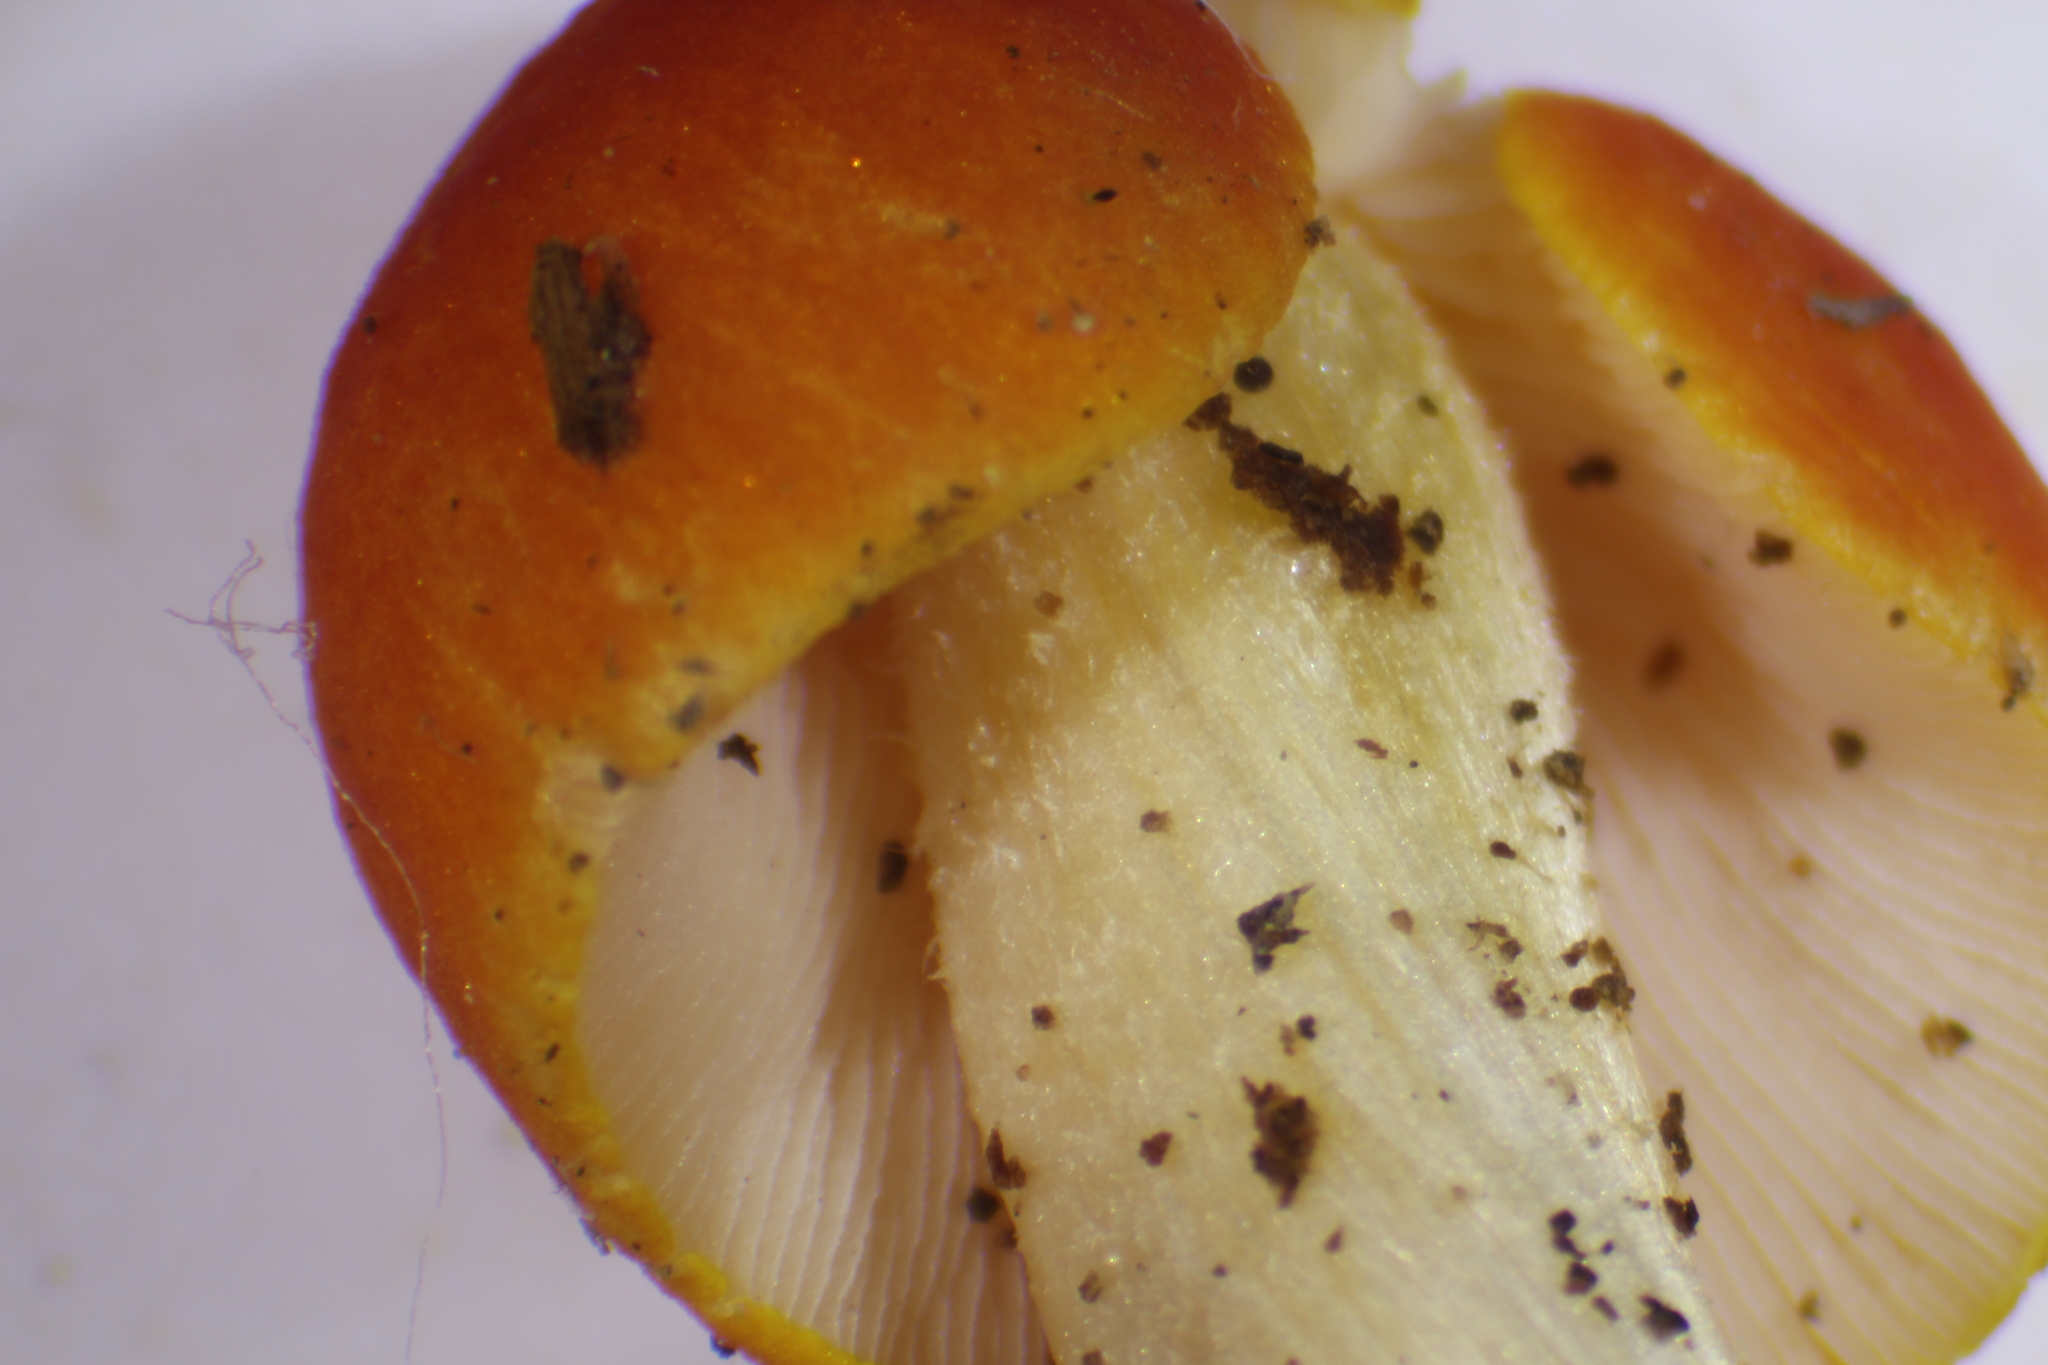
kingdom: Fungi
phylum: Basidiomycota
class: Agaricomycetes
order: Agaricales
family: Pluteaceae
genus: Pluteus
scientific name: Pluteus aurantiorugosus
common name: Flame shield
